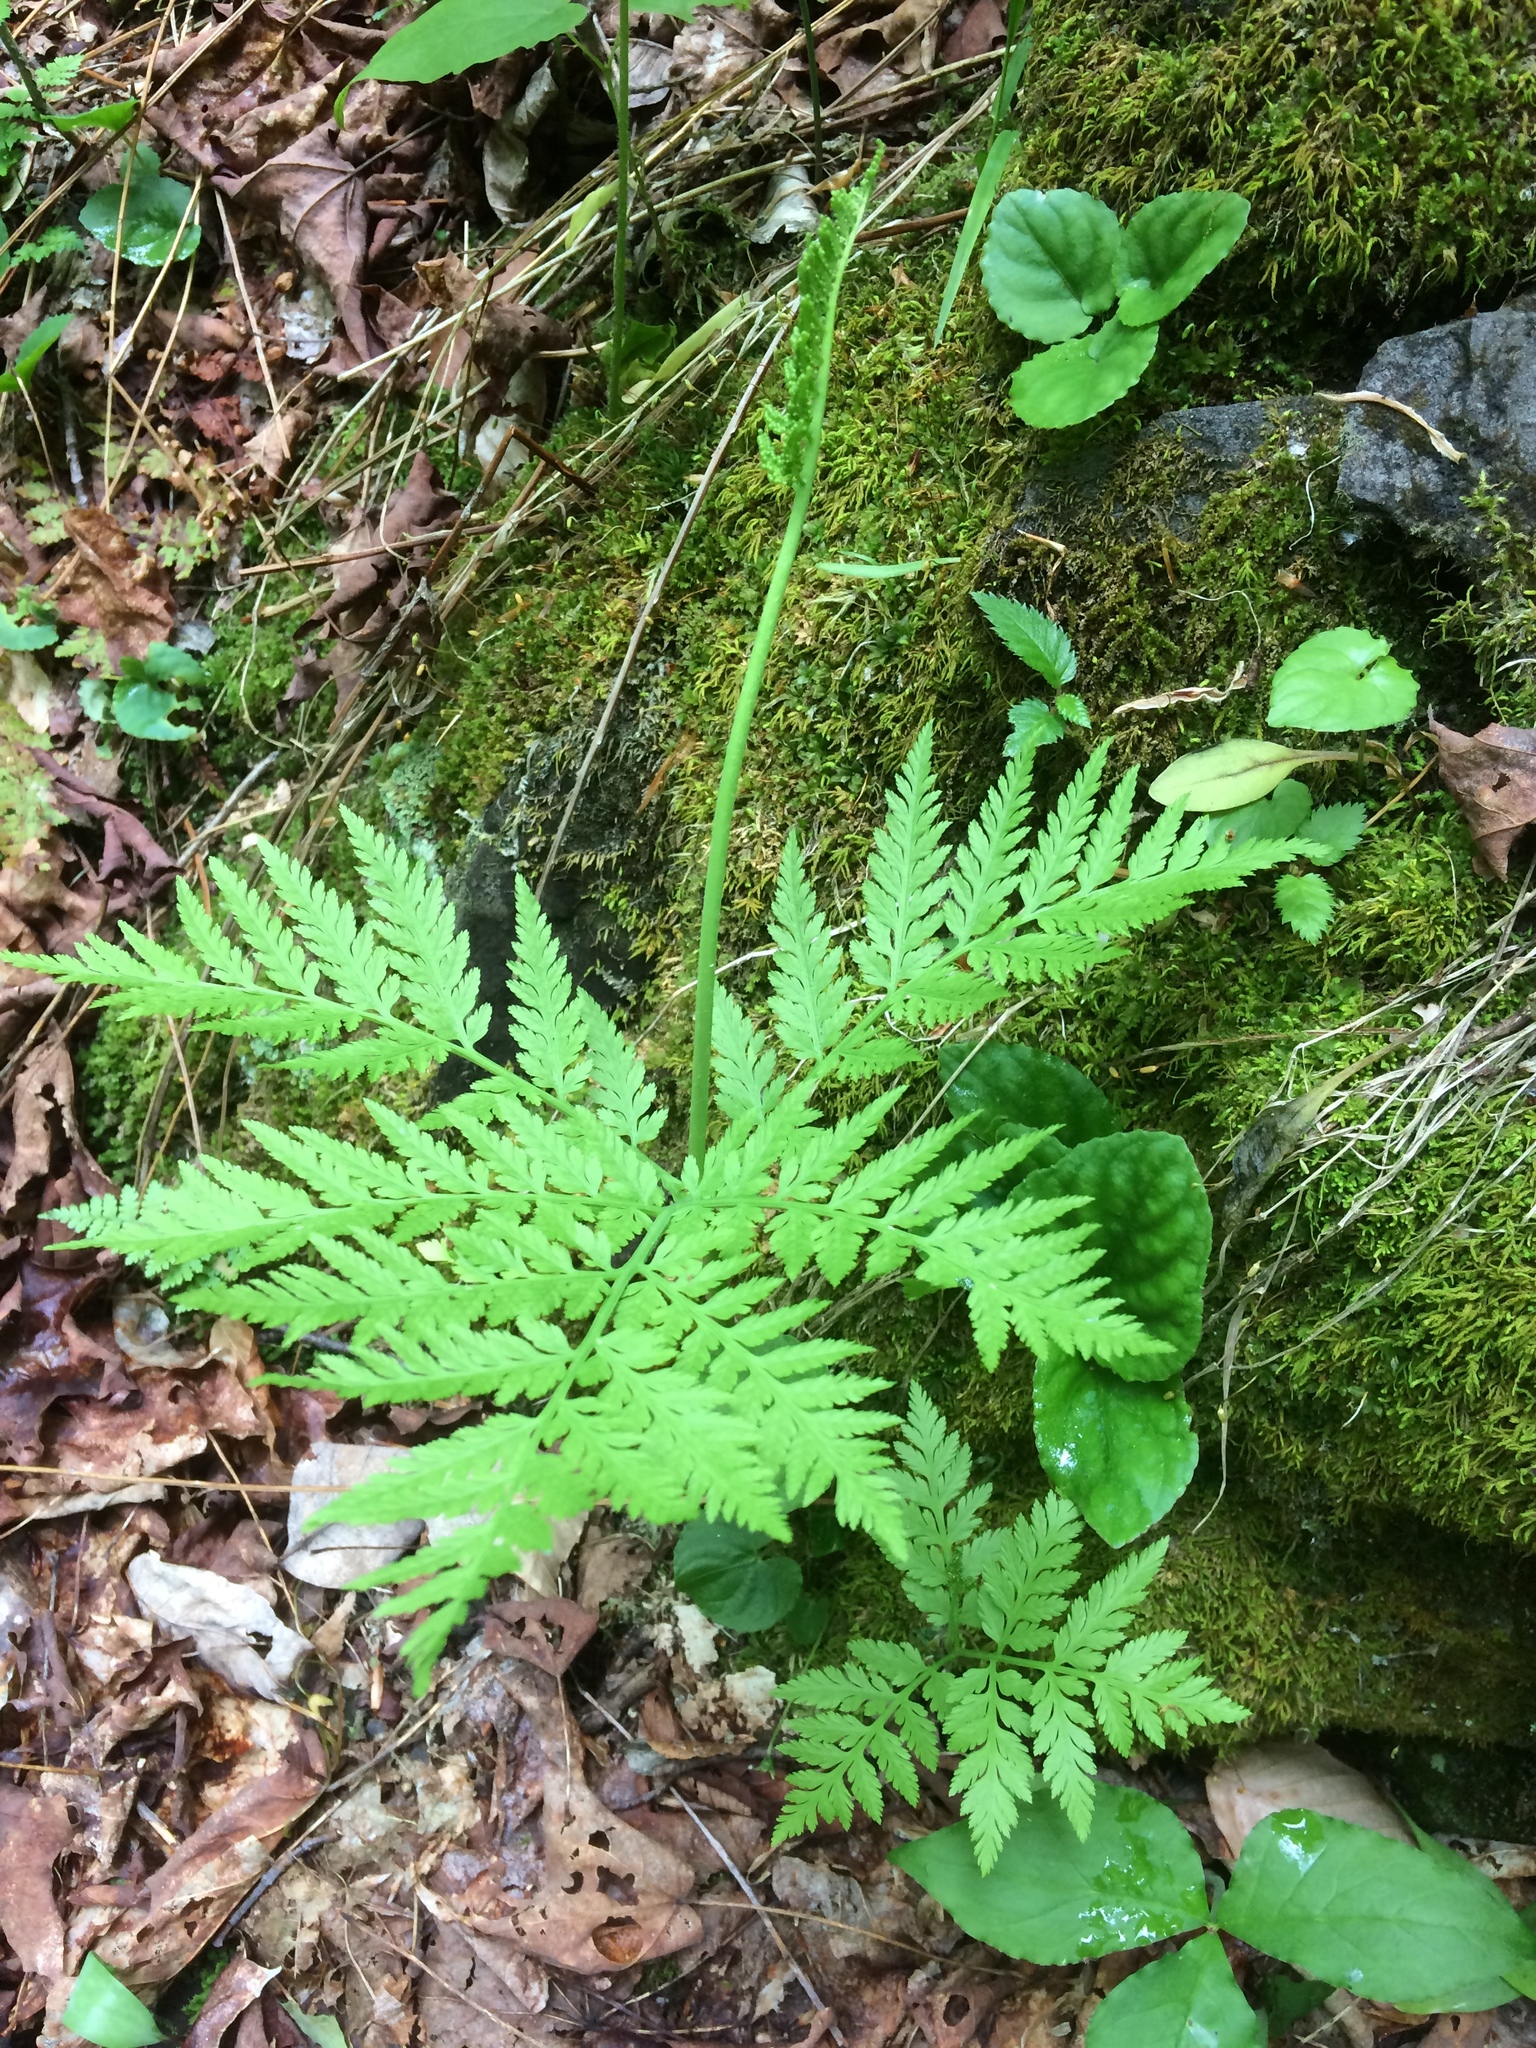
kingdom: Plantae
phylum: Tracheophyta
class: Polypodiopsida
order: Ophioglossales
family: Ophioglossaceae
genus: Botrypus
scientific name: Botrypus virginianus
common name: Common grapefern
